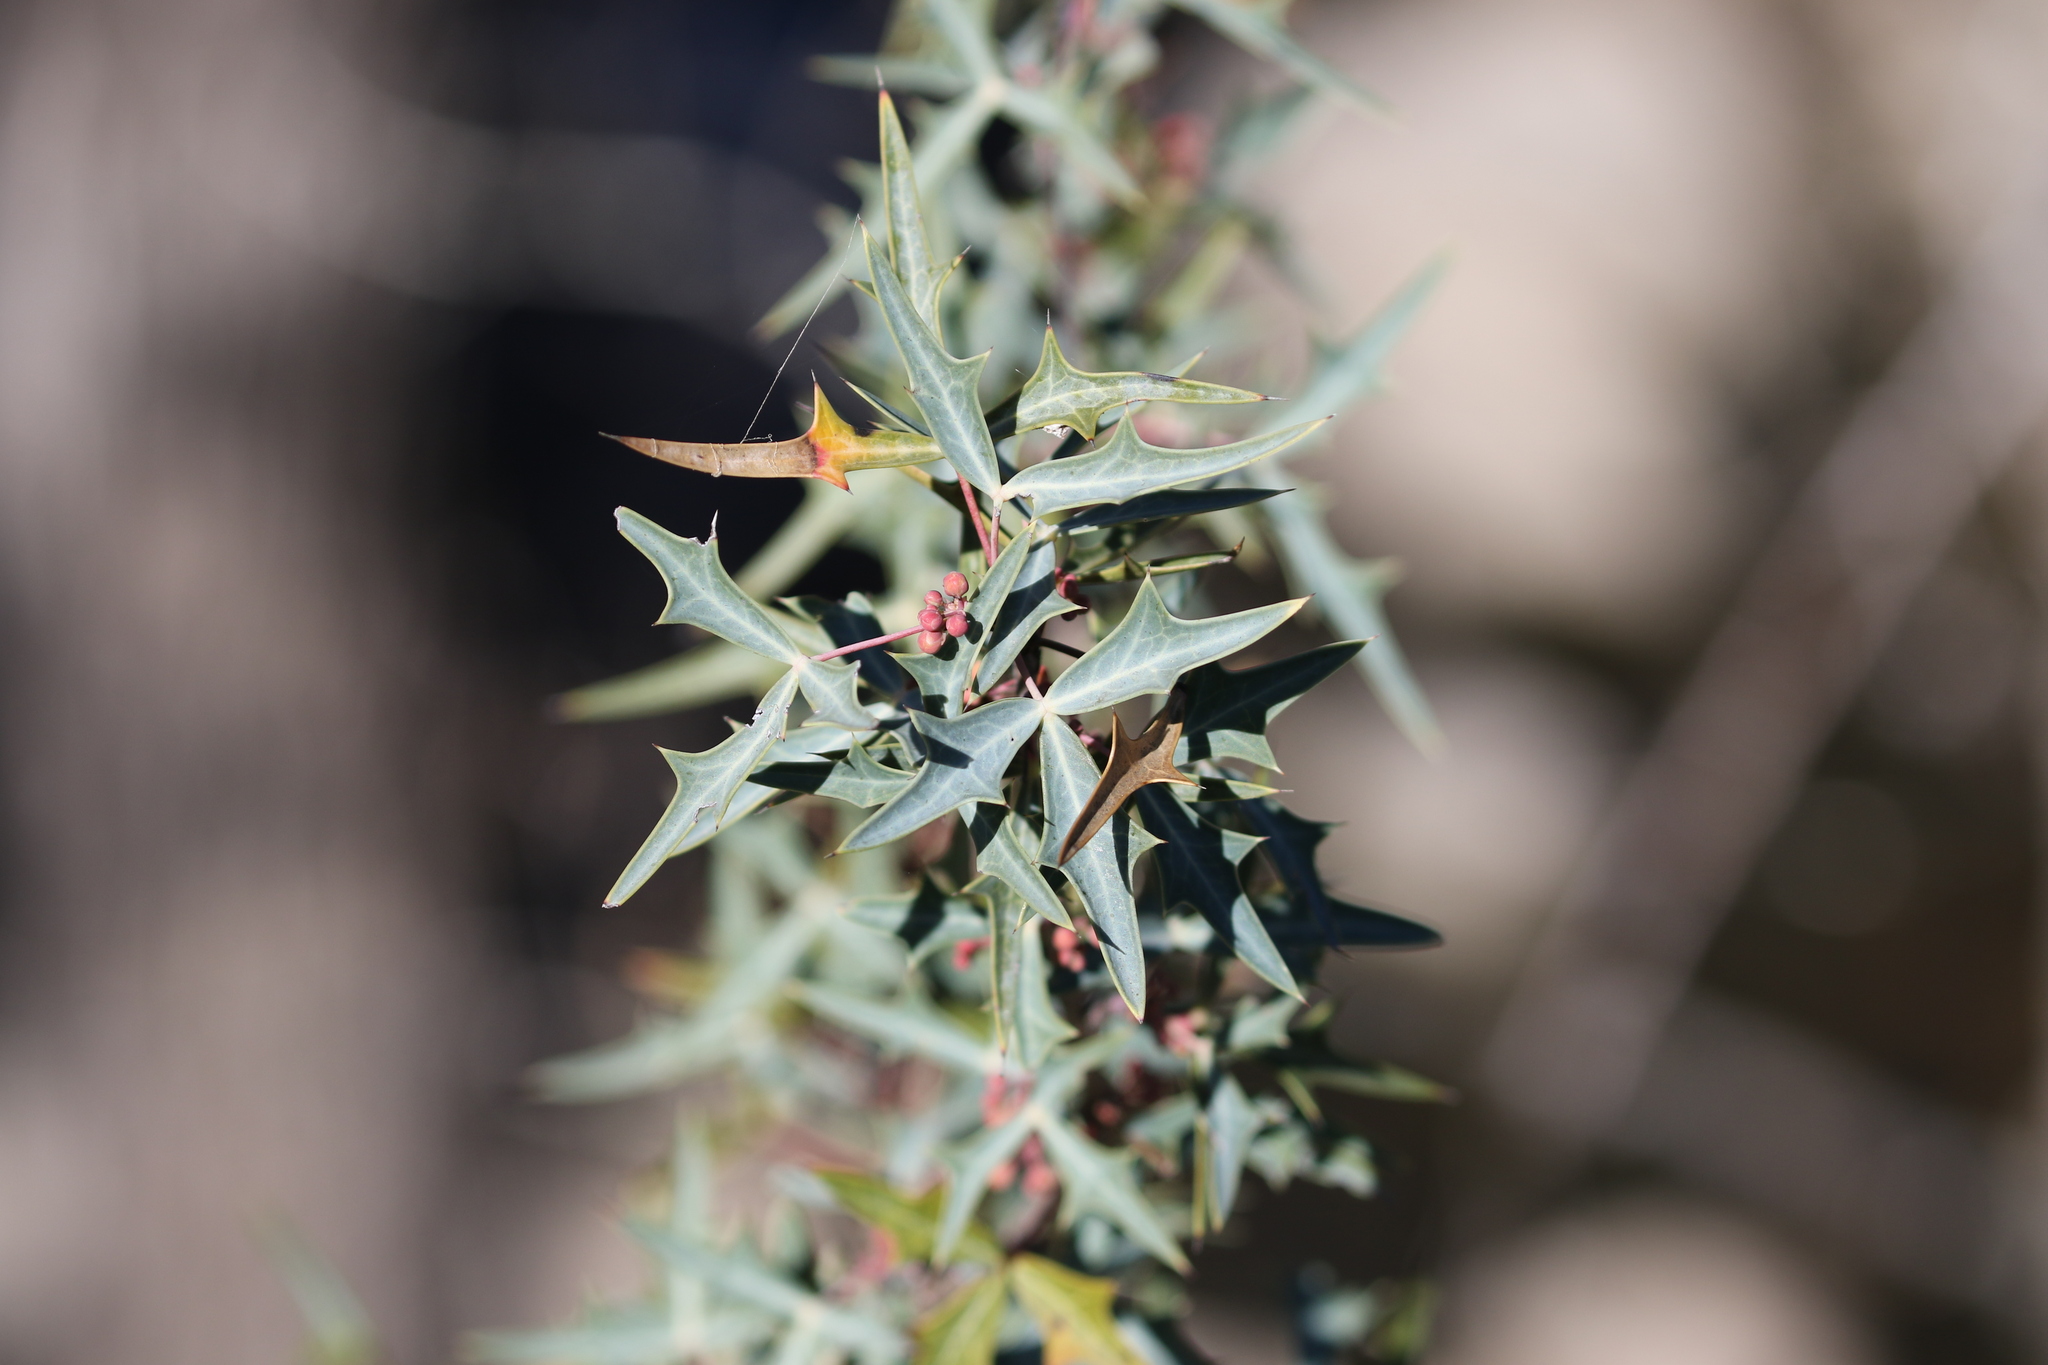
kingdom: Plantae
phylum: Tracheophyta
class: Magnoliopsida
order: Ranunculales
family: Berberidaceae
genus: Alloberberis
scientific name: Alloberberis trifoliolata
